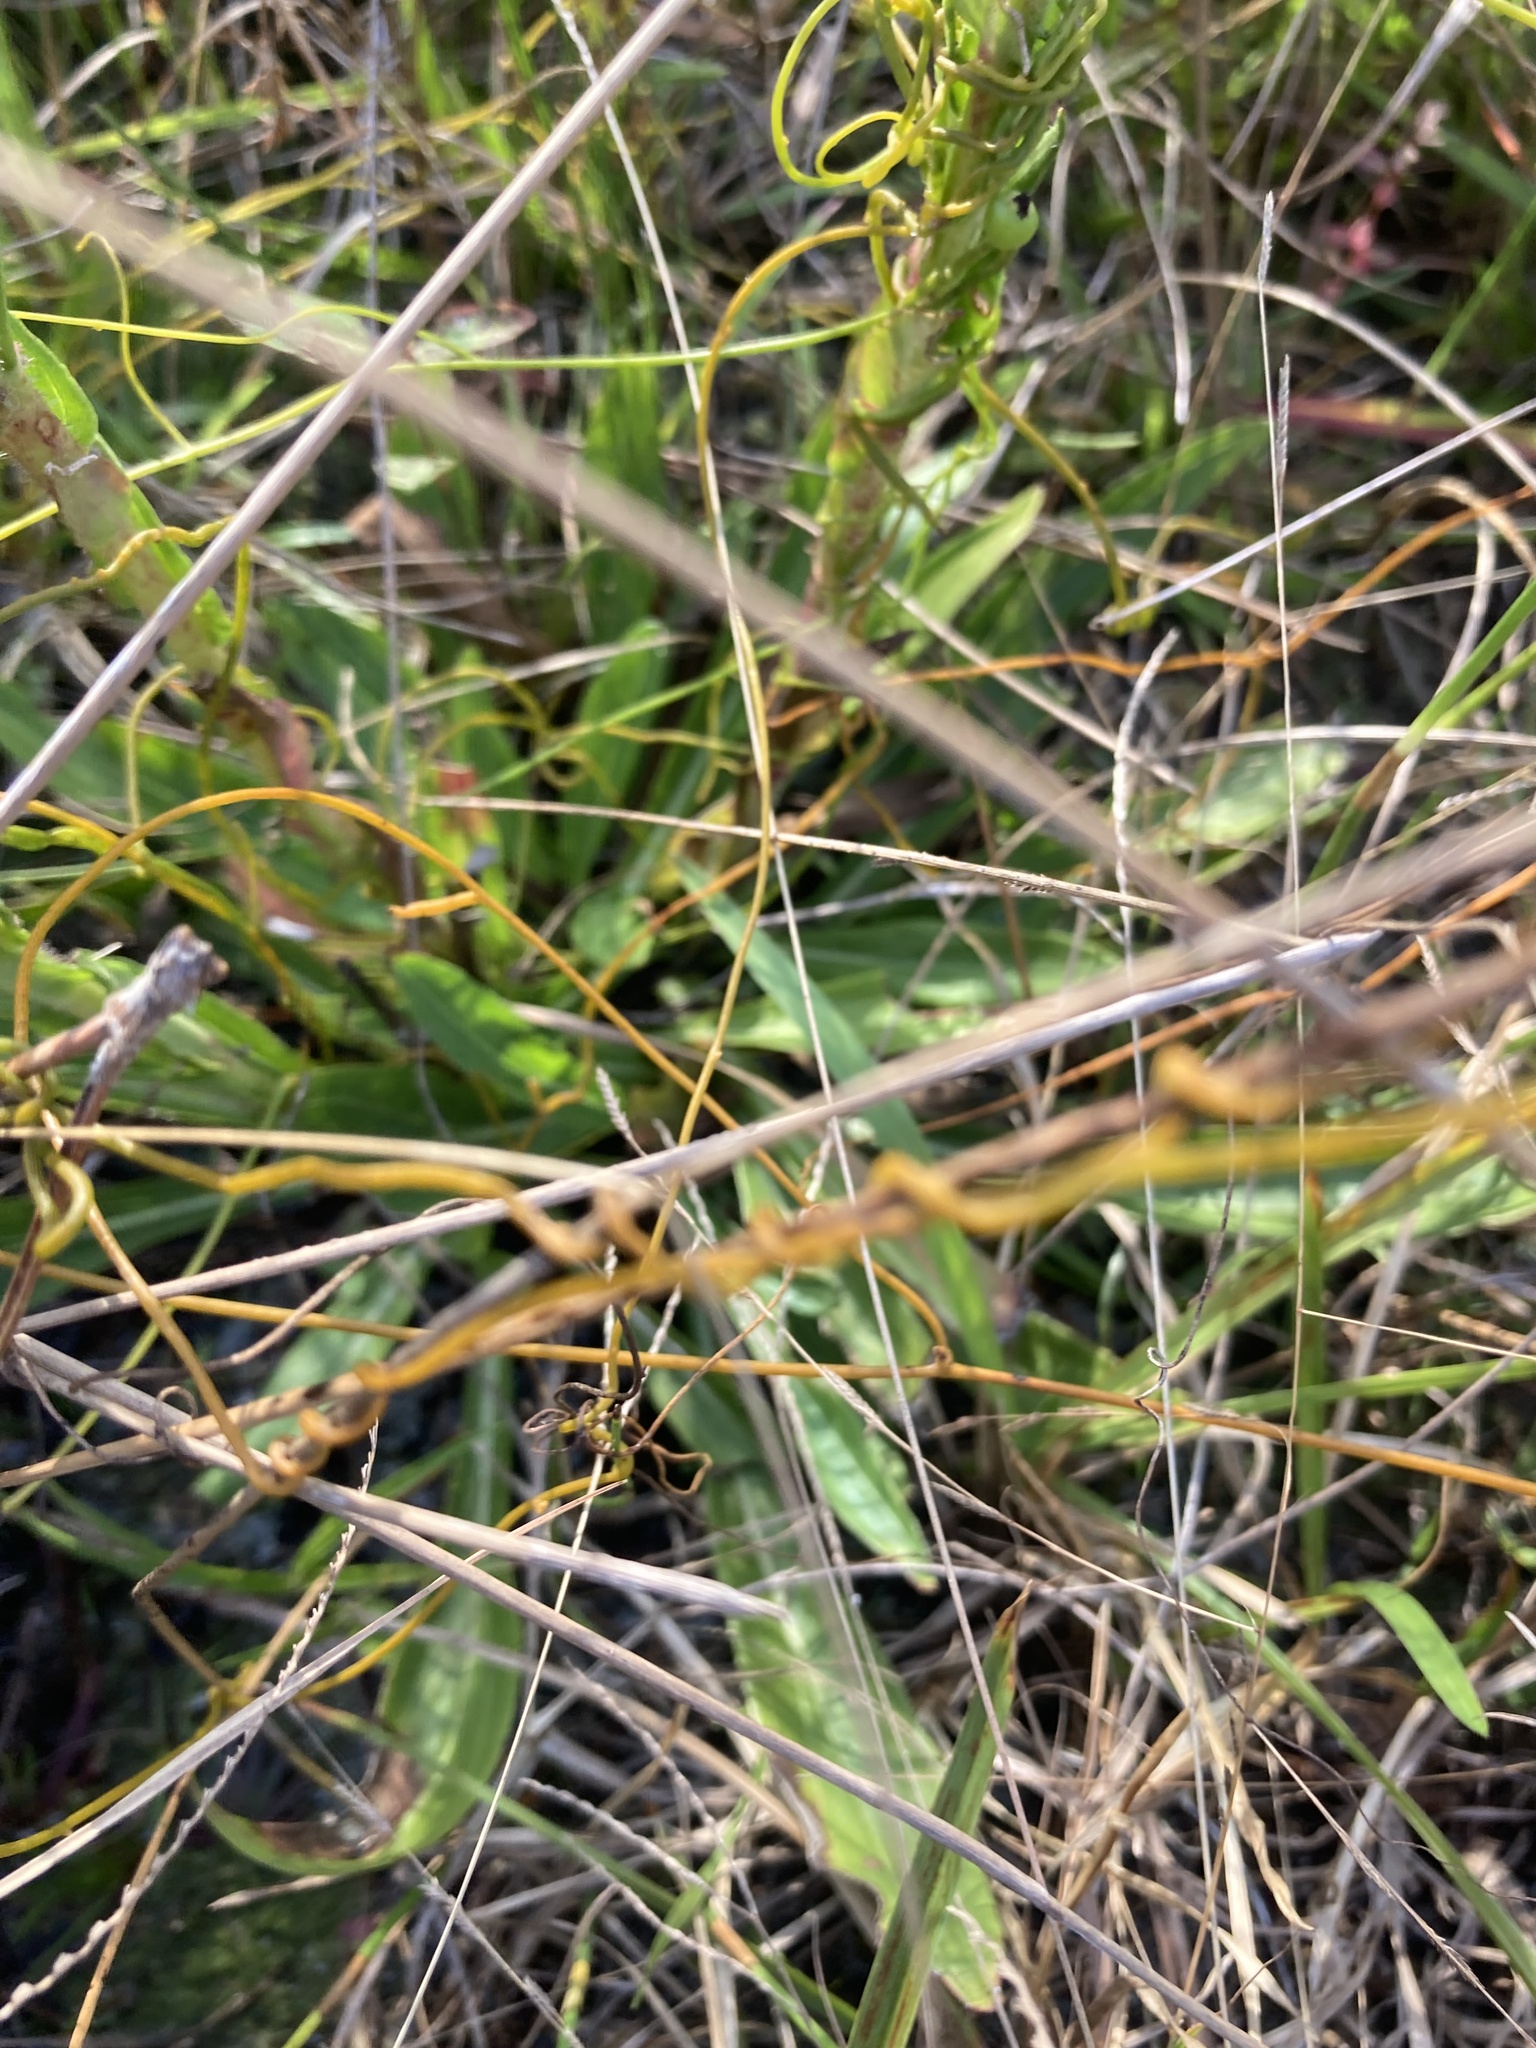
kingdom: Plantae
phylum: Tracheophyta
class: Magnoliopsida
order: Asterales
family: Asteraceae
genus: Carphephorus
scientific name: Carphephorus paniculatus
